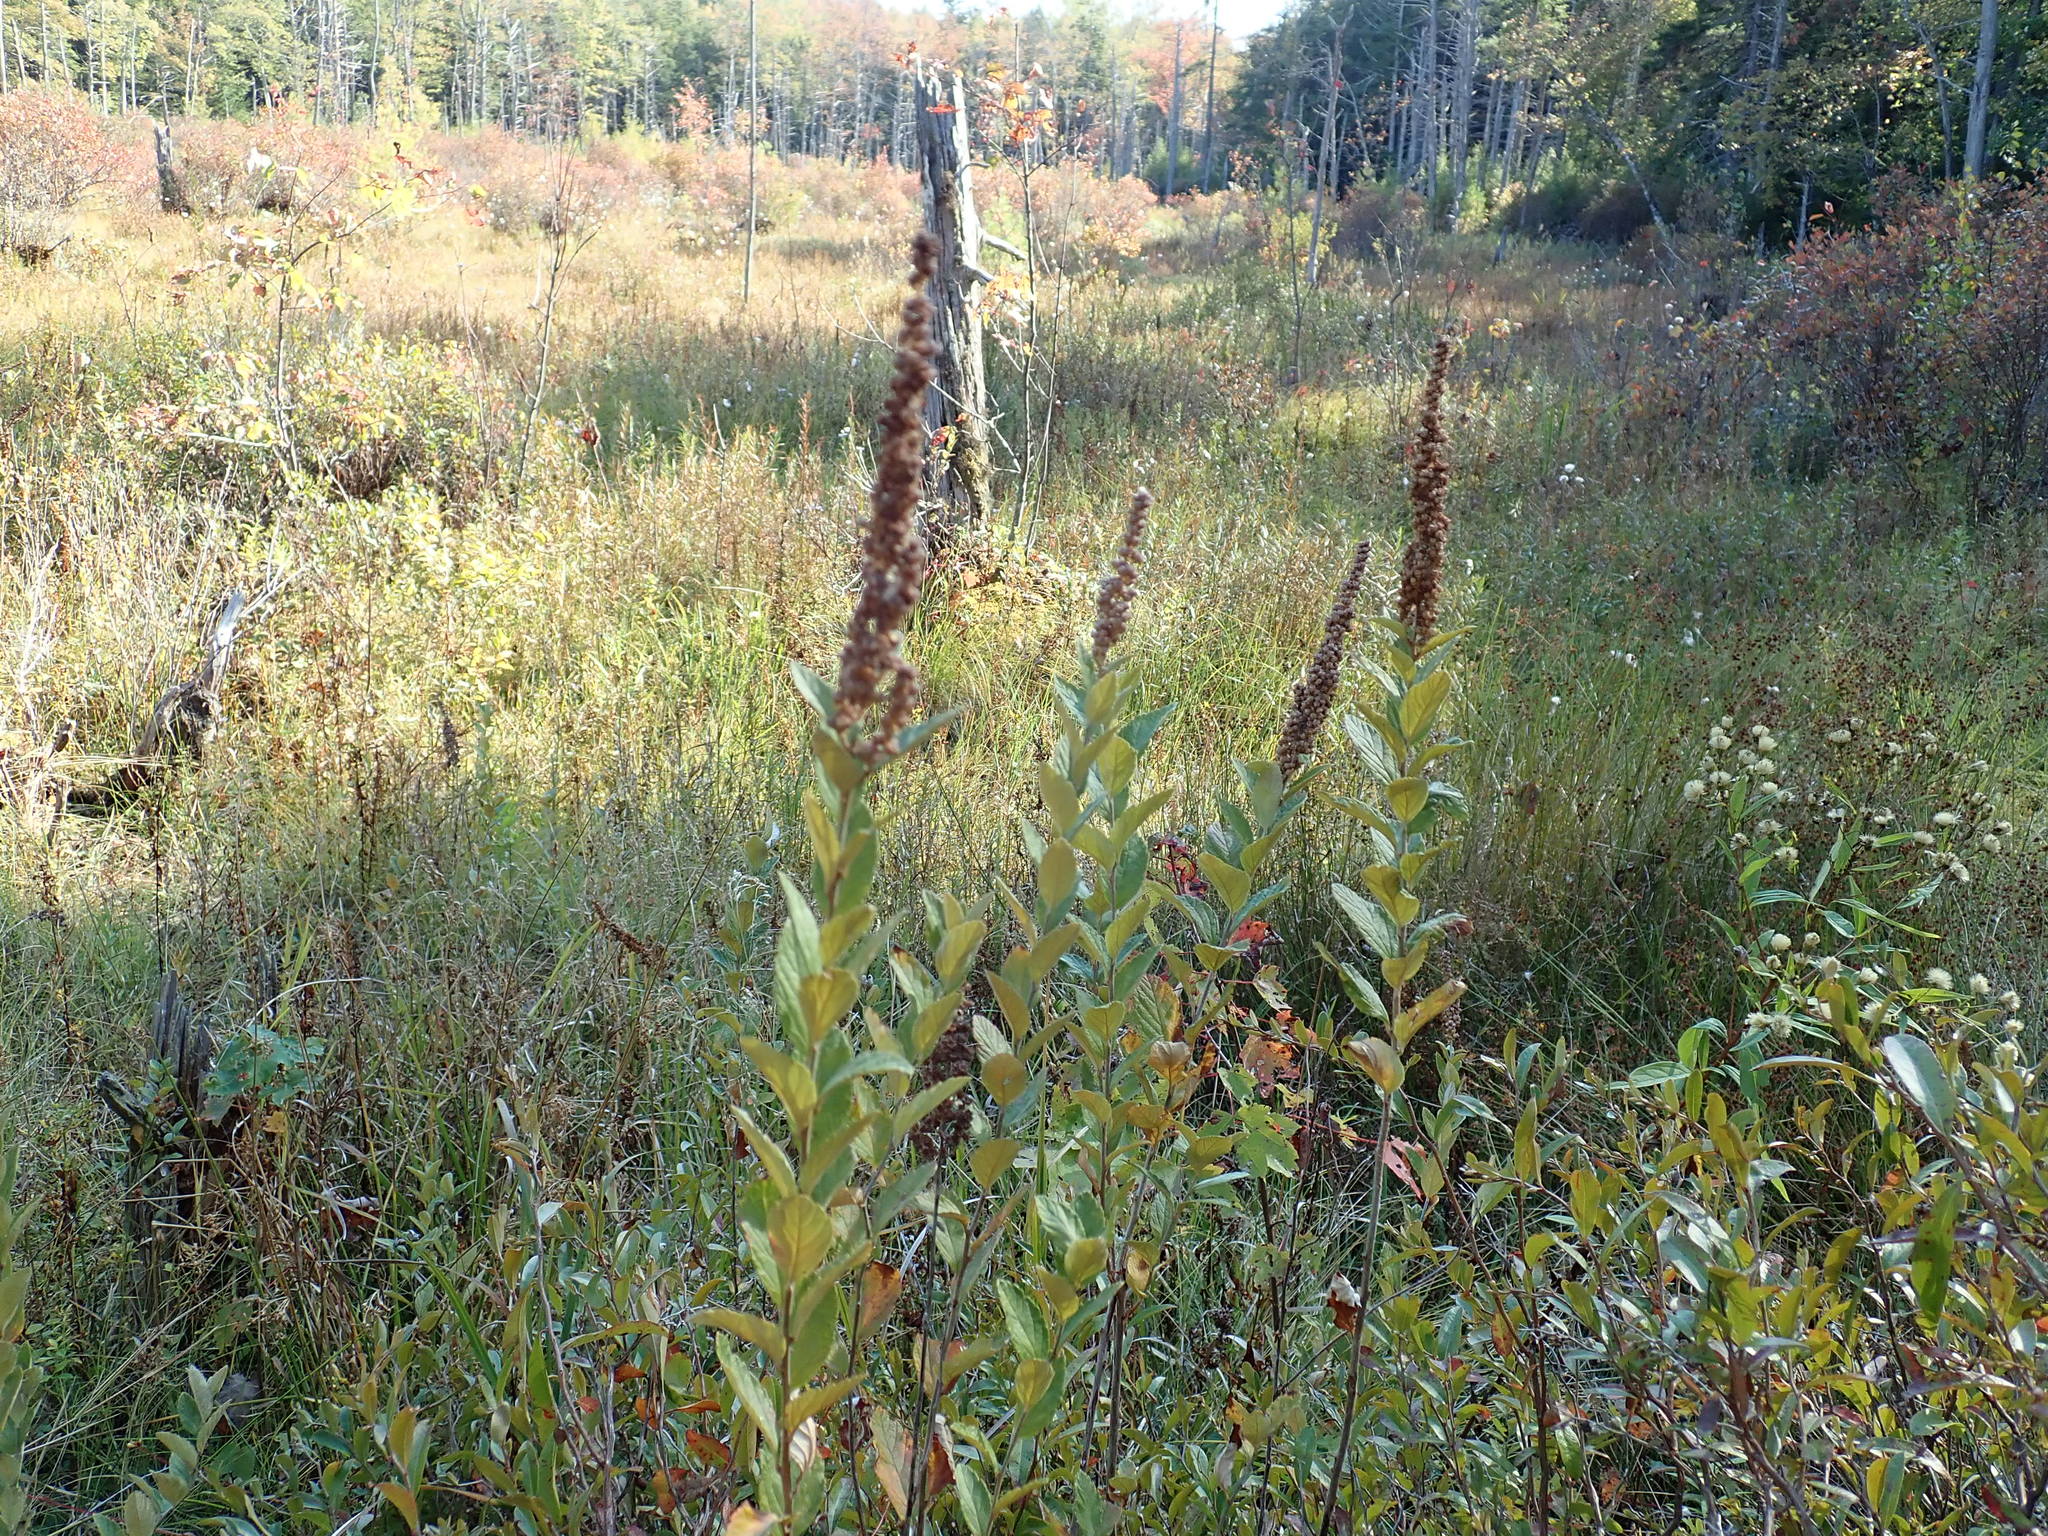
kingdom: Plantae
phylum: Tracheophyta
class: Magnoliopsida
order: Rosales
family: Rosaceae
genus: Spiraea
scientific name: Spiraea tomentosa
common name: Hardhack
